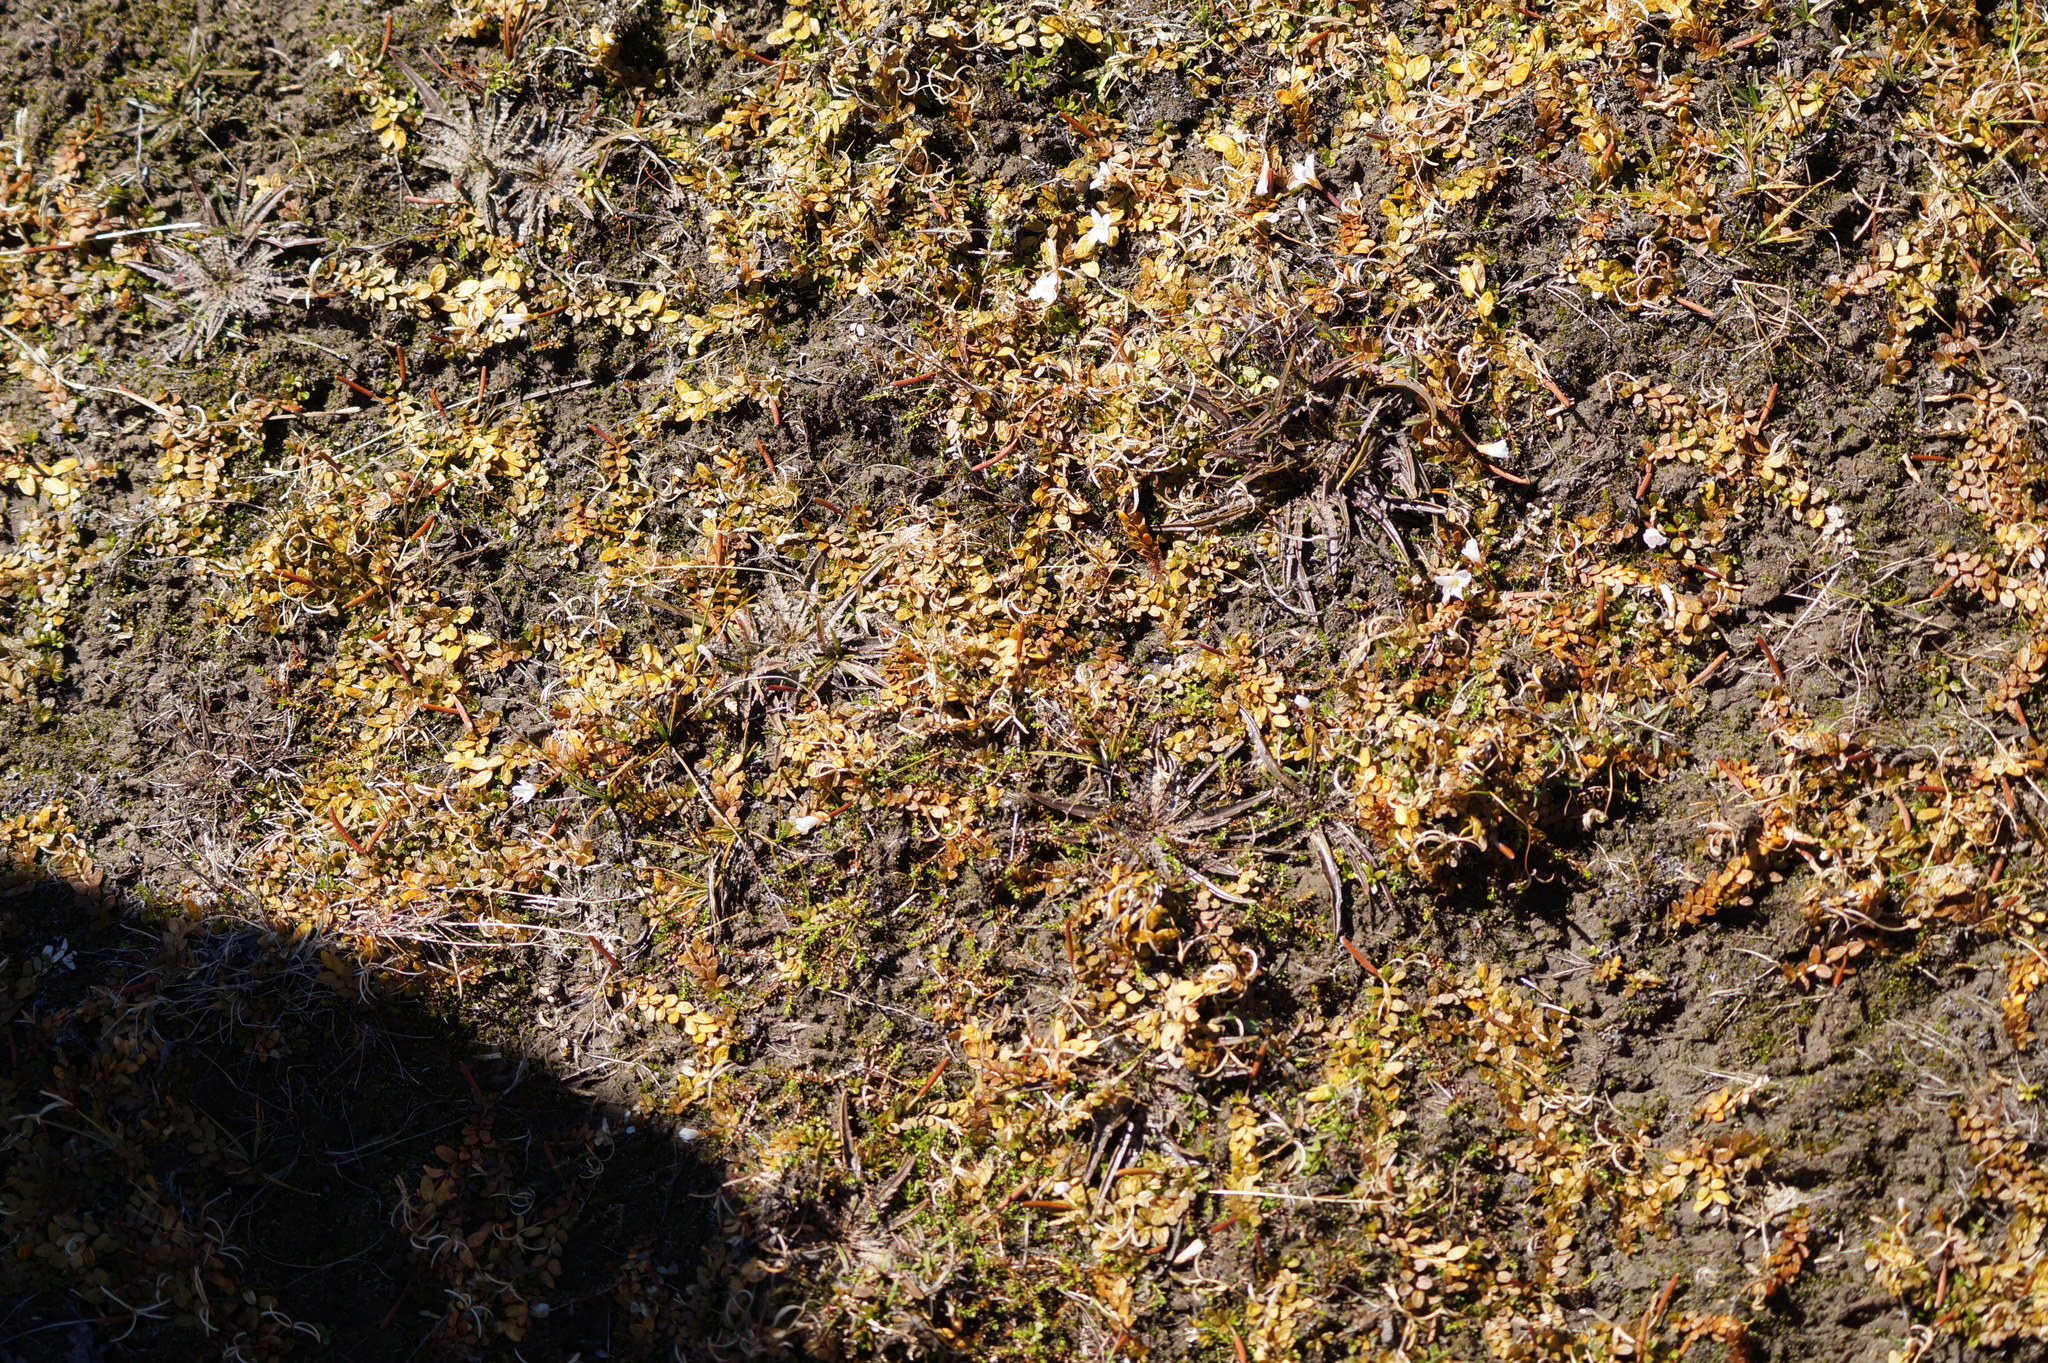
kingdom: Plantae
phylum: Tracheophyta
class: Magnoliopsida
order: Lamiales
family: Plantaginaceae
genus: Plantago
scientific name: Plantago triandra
